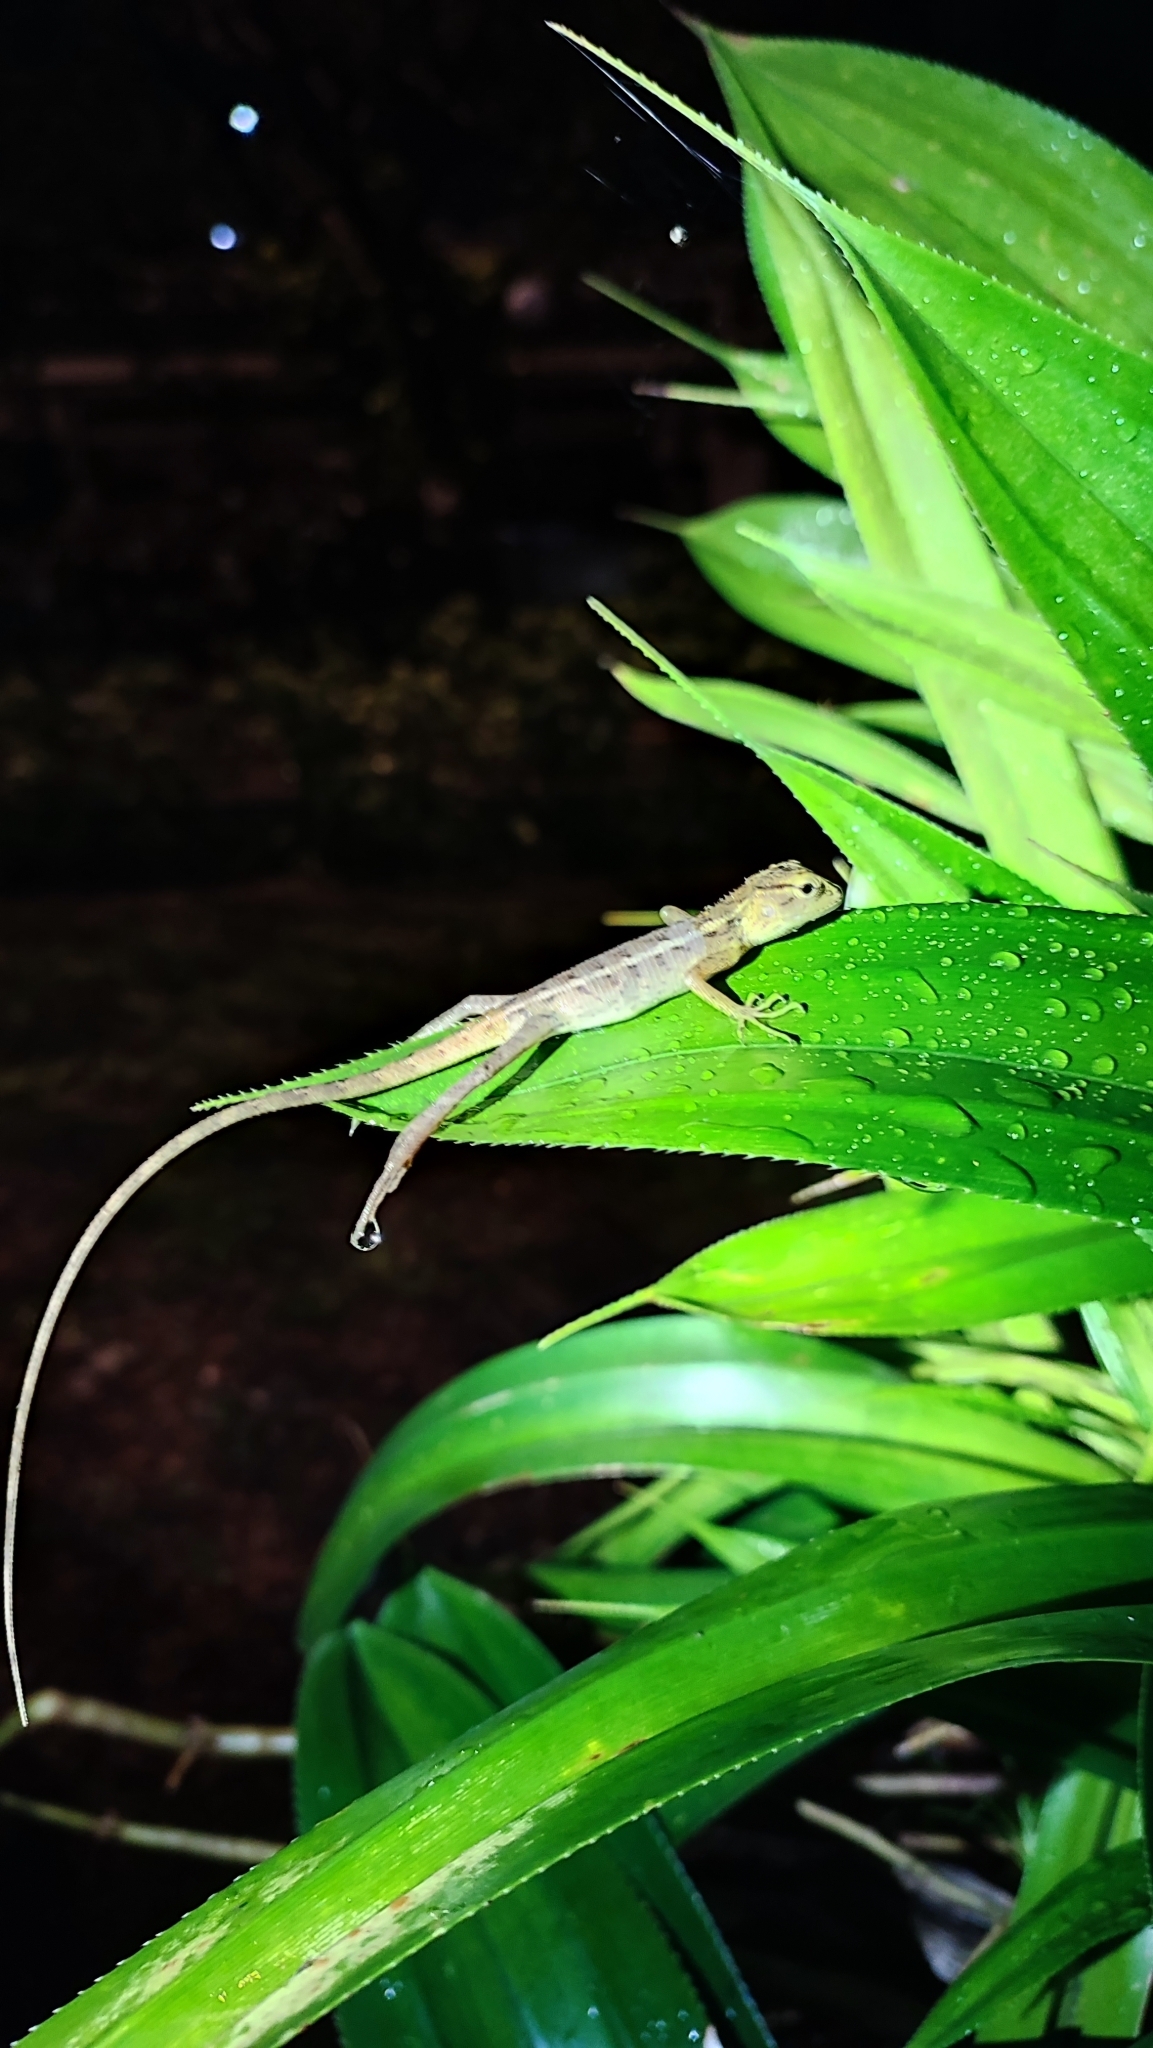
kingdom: Animalia
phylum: Chordata
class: Squamata
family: Agamidae
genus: Calotes
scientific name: Calotes versicolor
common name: Oriental garden lizard
